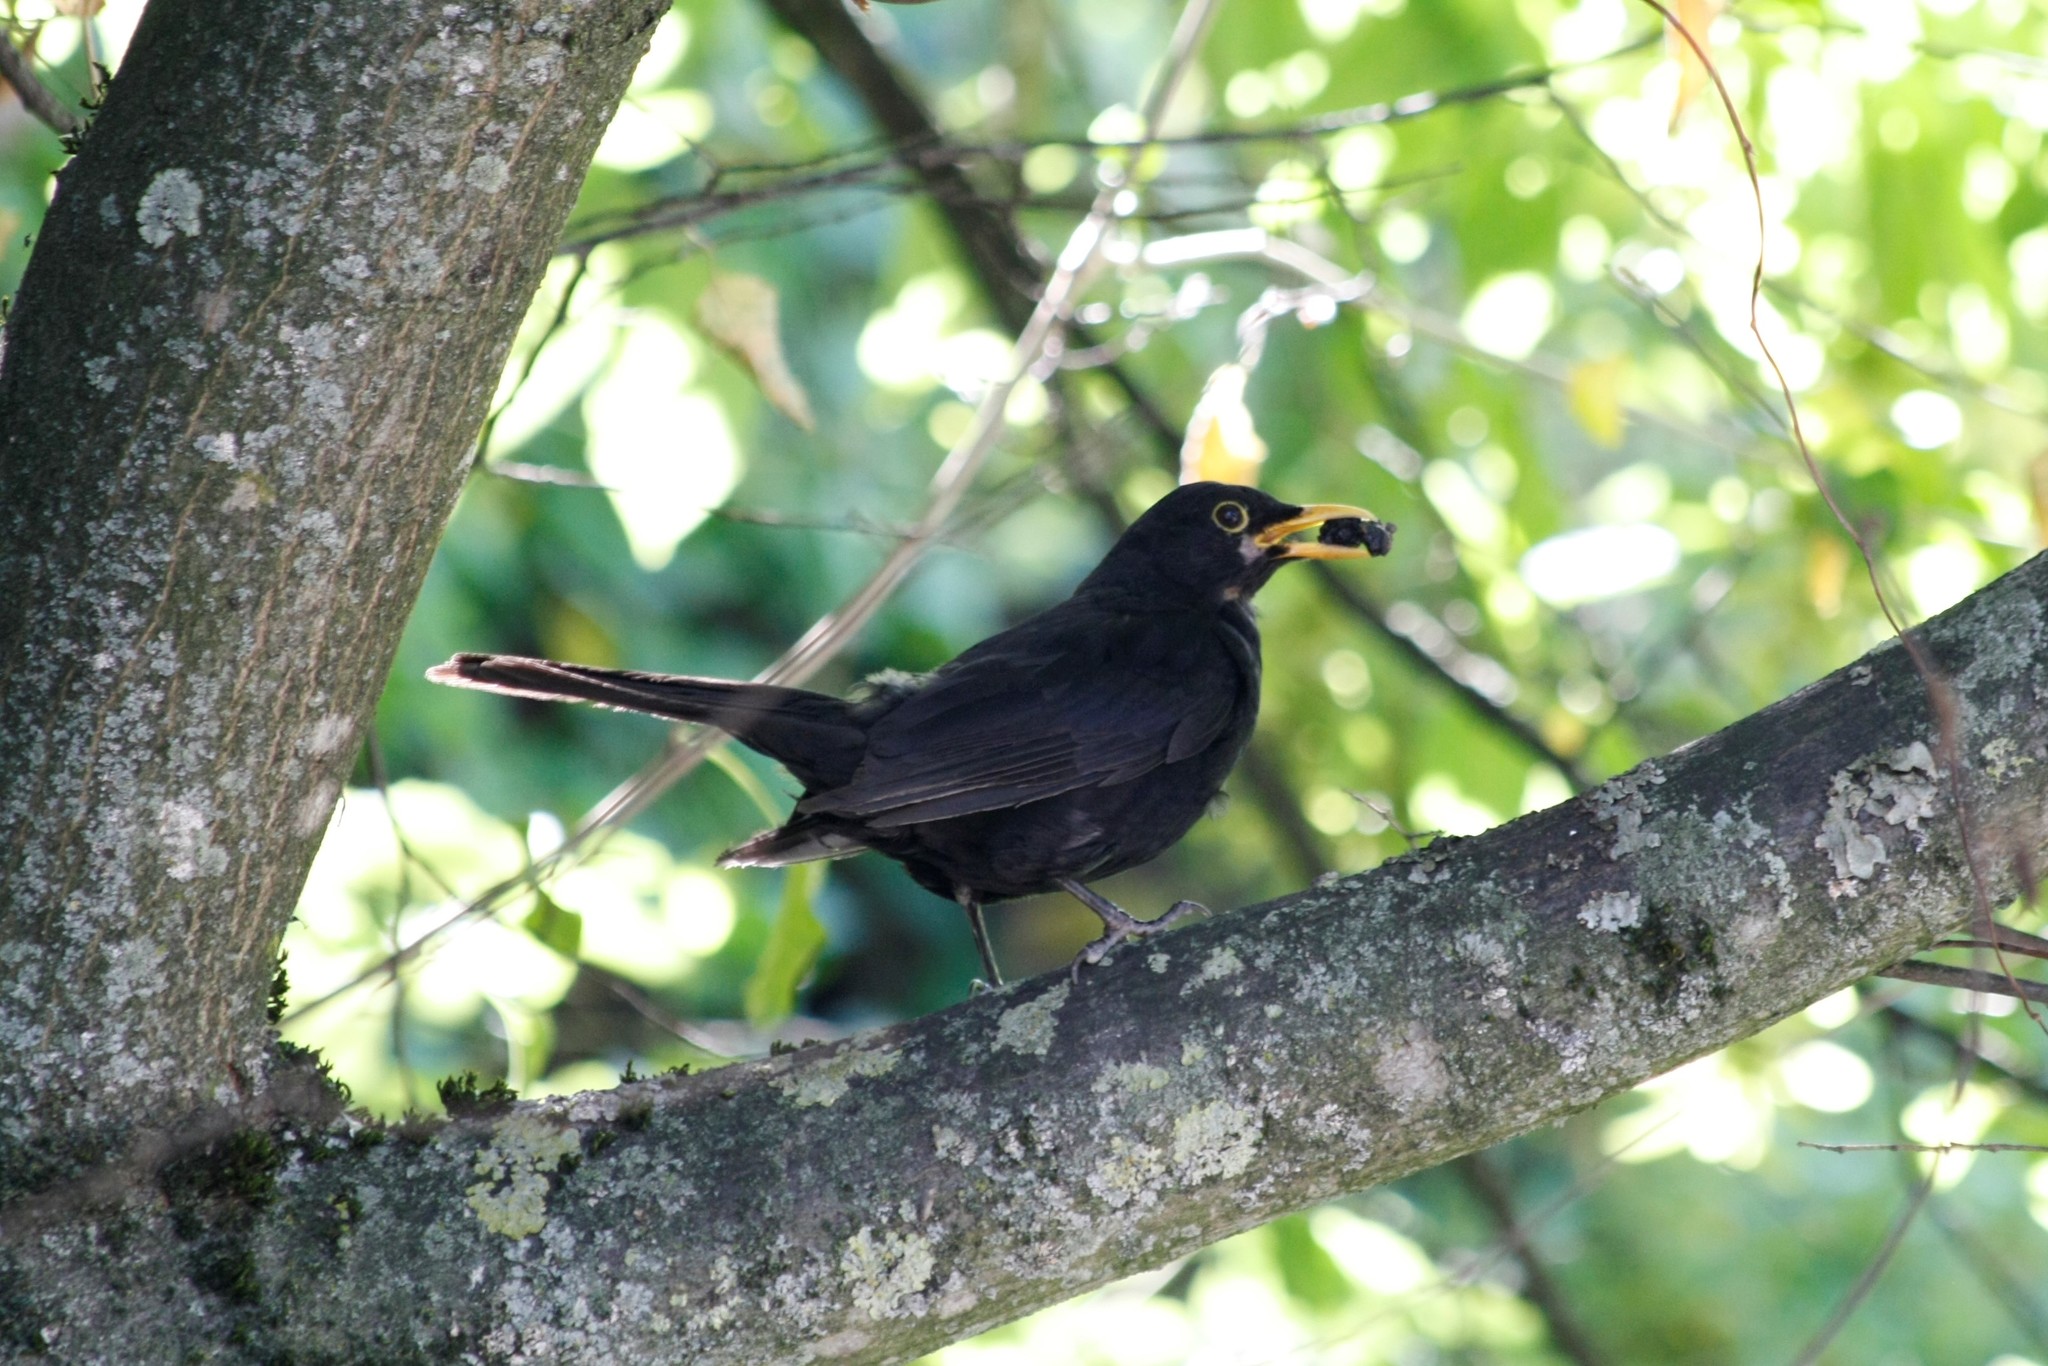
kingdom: Animalia
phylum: Chordata
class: Aves
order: Passeriformes
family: Turdidae
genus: Turdus
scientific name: Turdus merula
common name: Common blackbird
